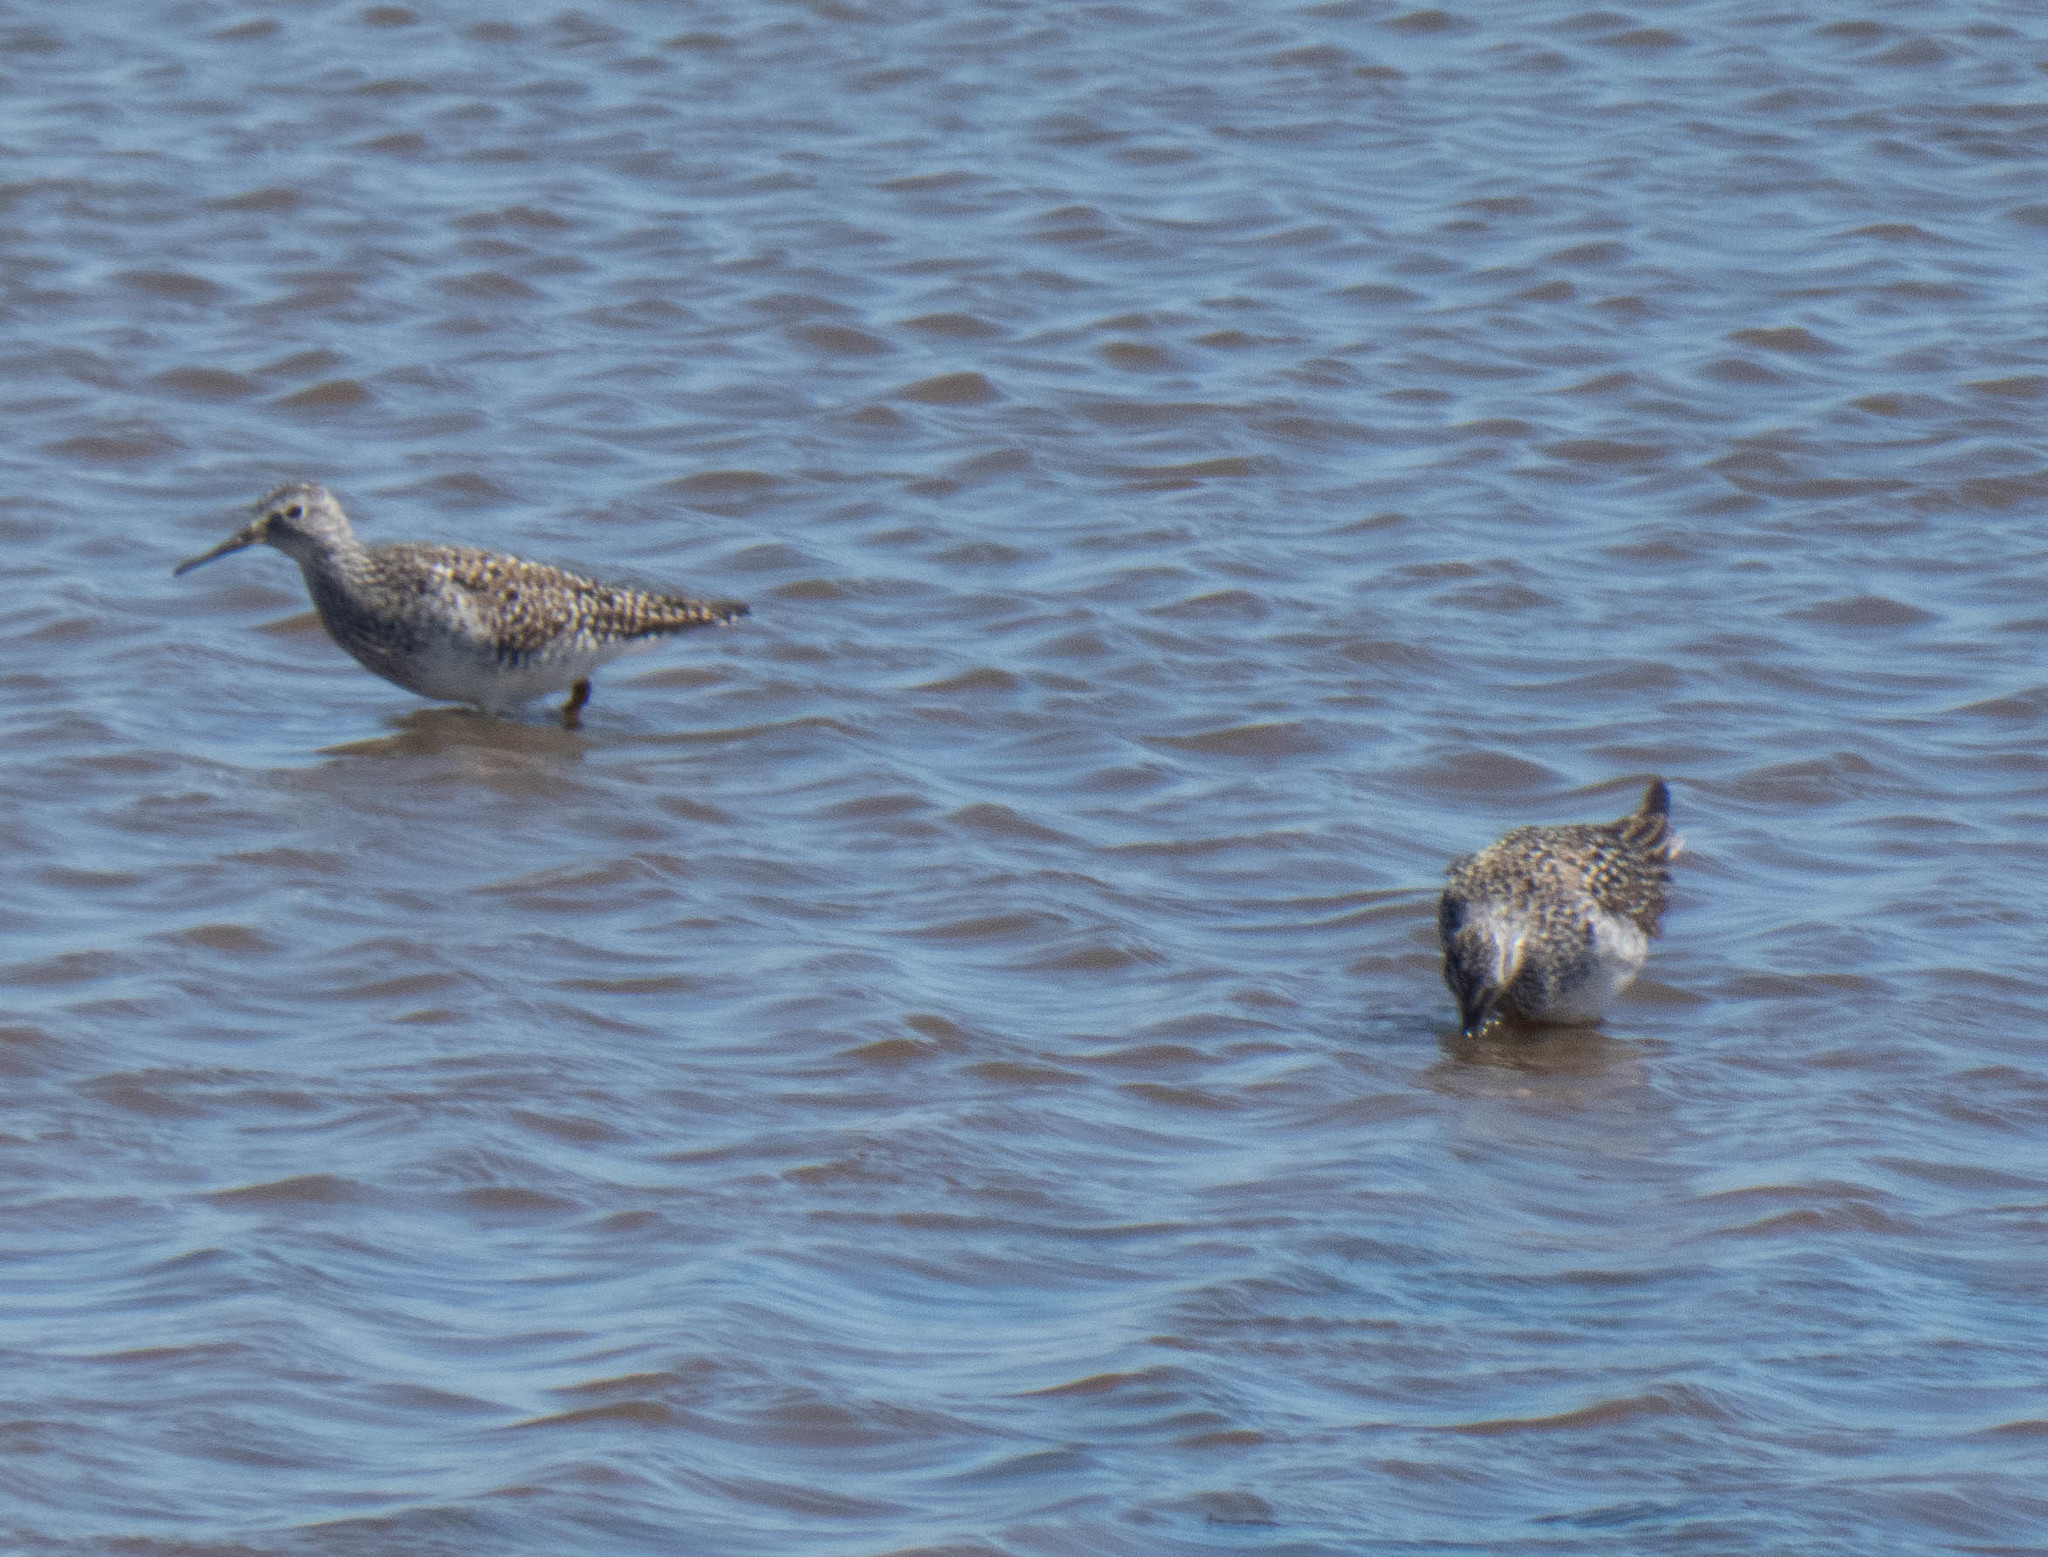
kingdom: Animalia
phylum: Chordata
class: Aves
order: Charadriiformes
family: Scolopacidae
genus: Tringa
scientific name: Tringa flavipes
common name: Lesser yellowlegs
